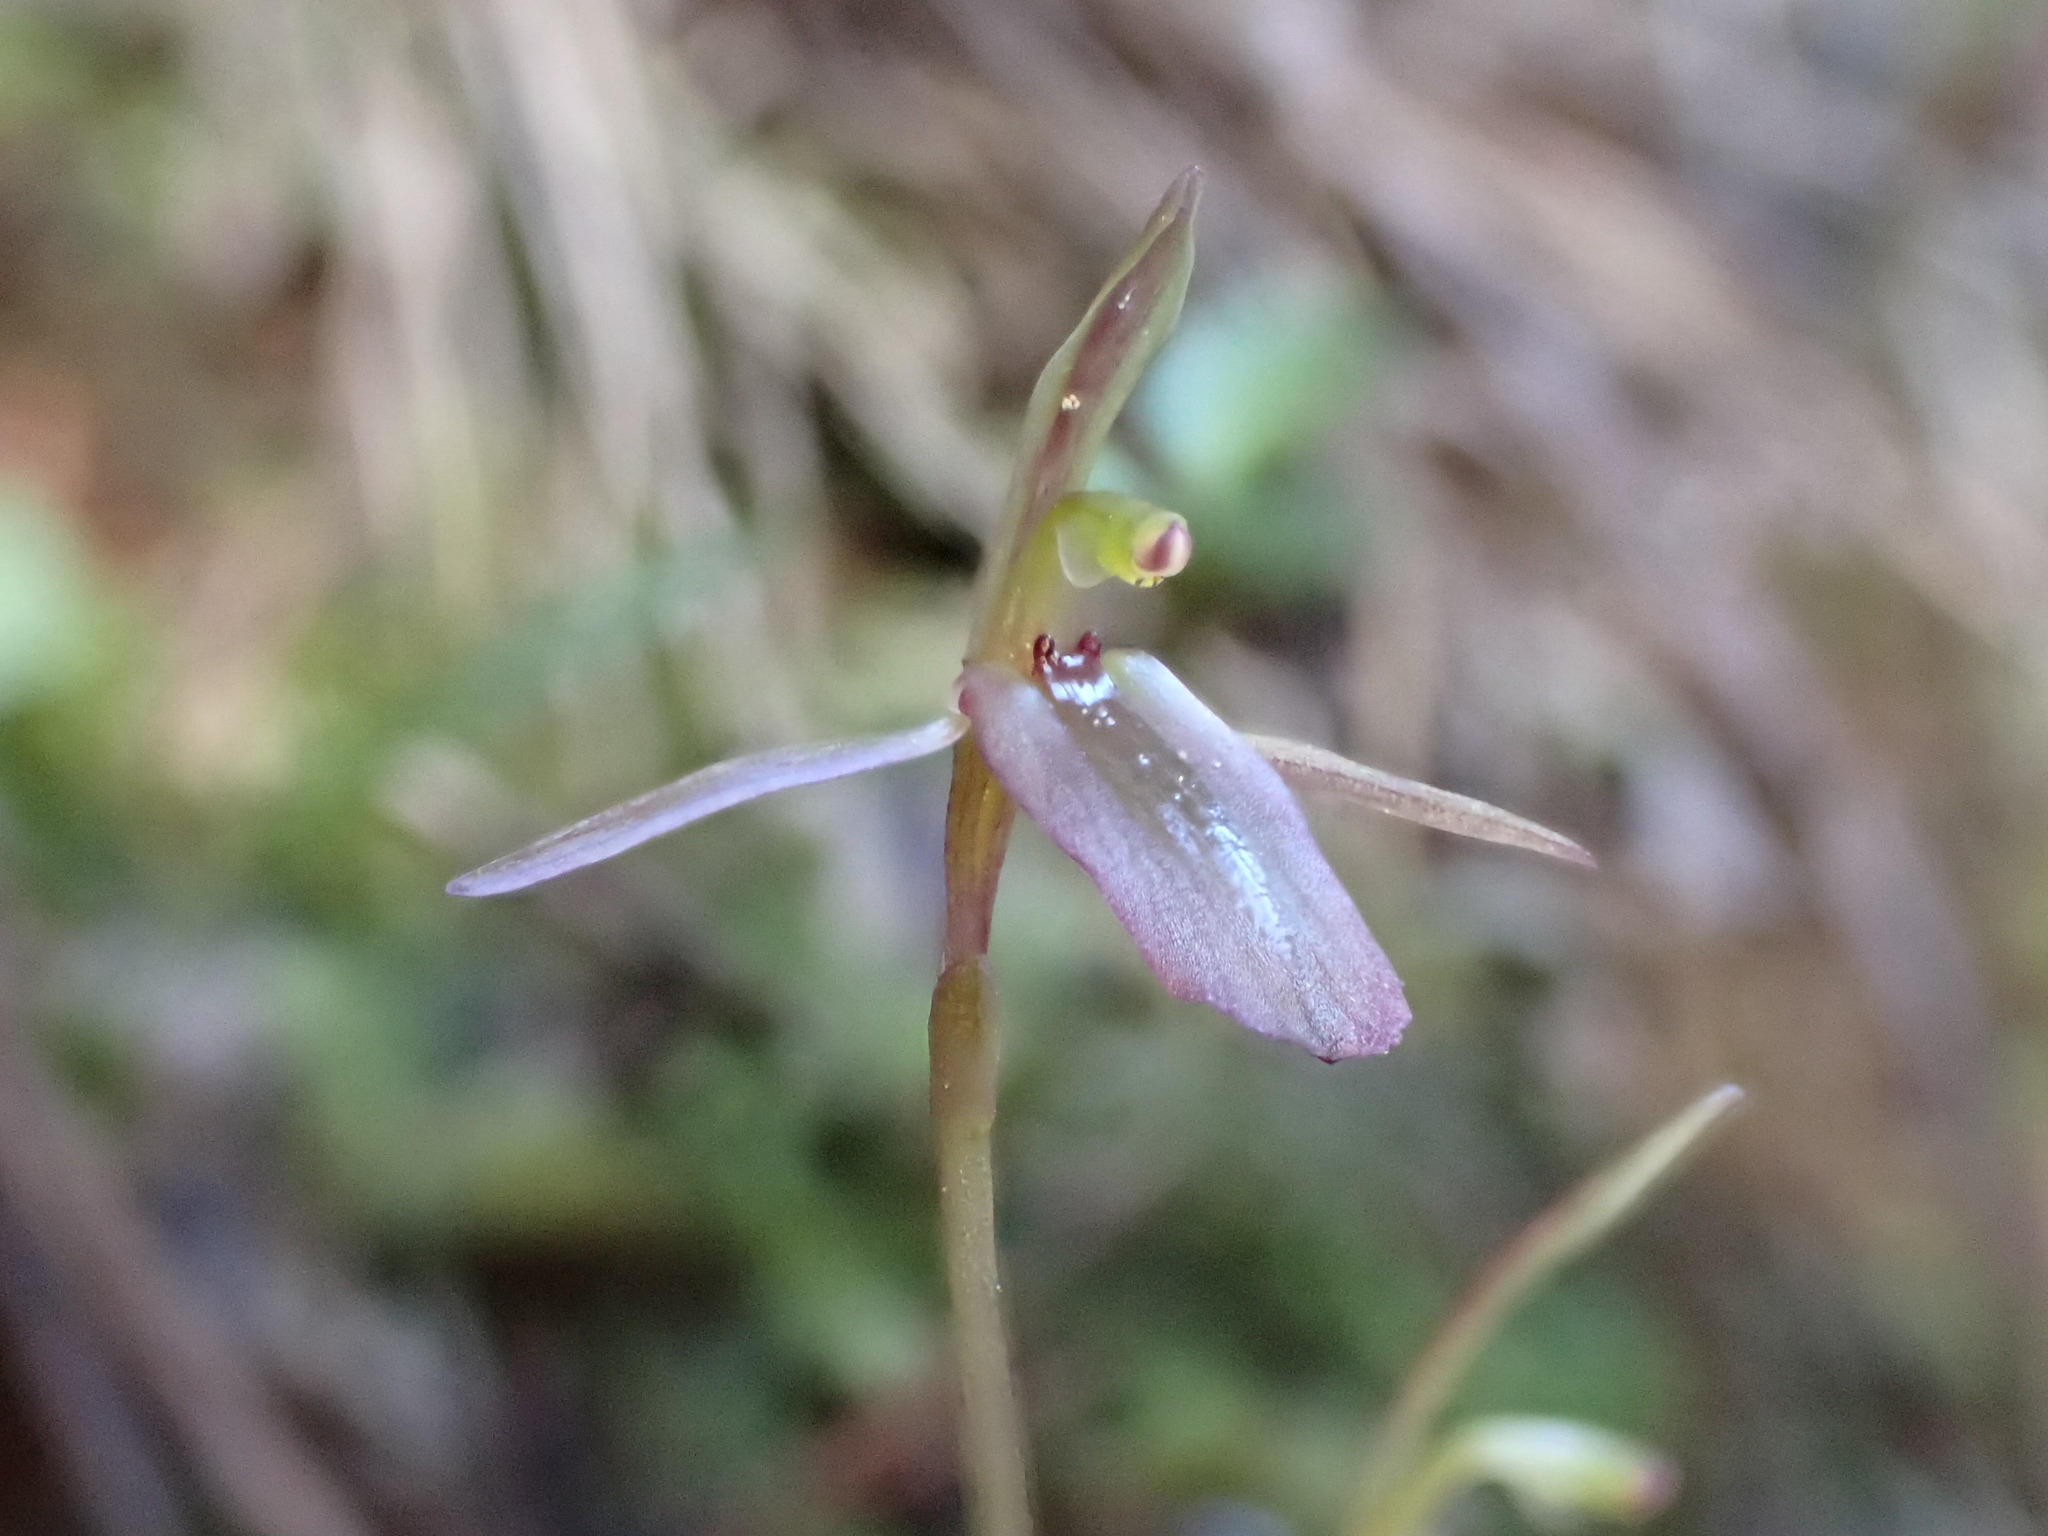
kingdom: Plantae
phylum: Tracheophyta
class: Liliopsida
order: Asparagales
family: Orchidaceae
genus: Cyrtostylis
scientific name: Cyrtostylis rotundifolia
